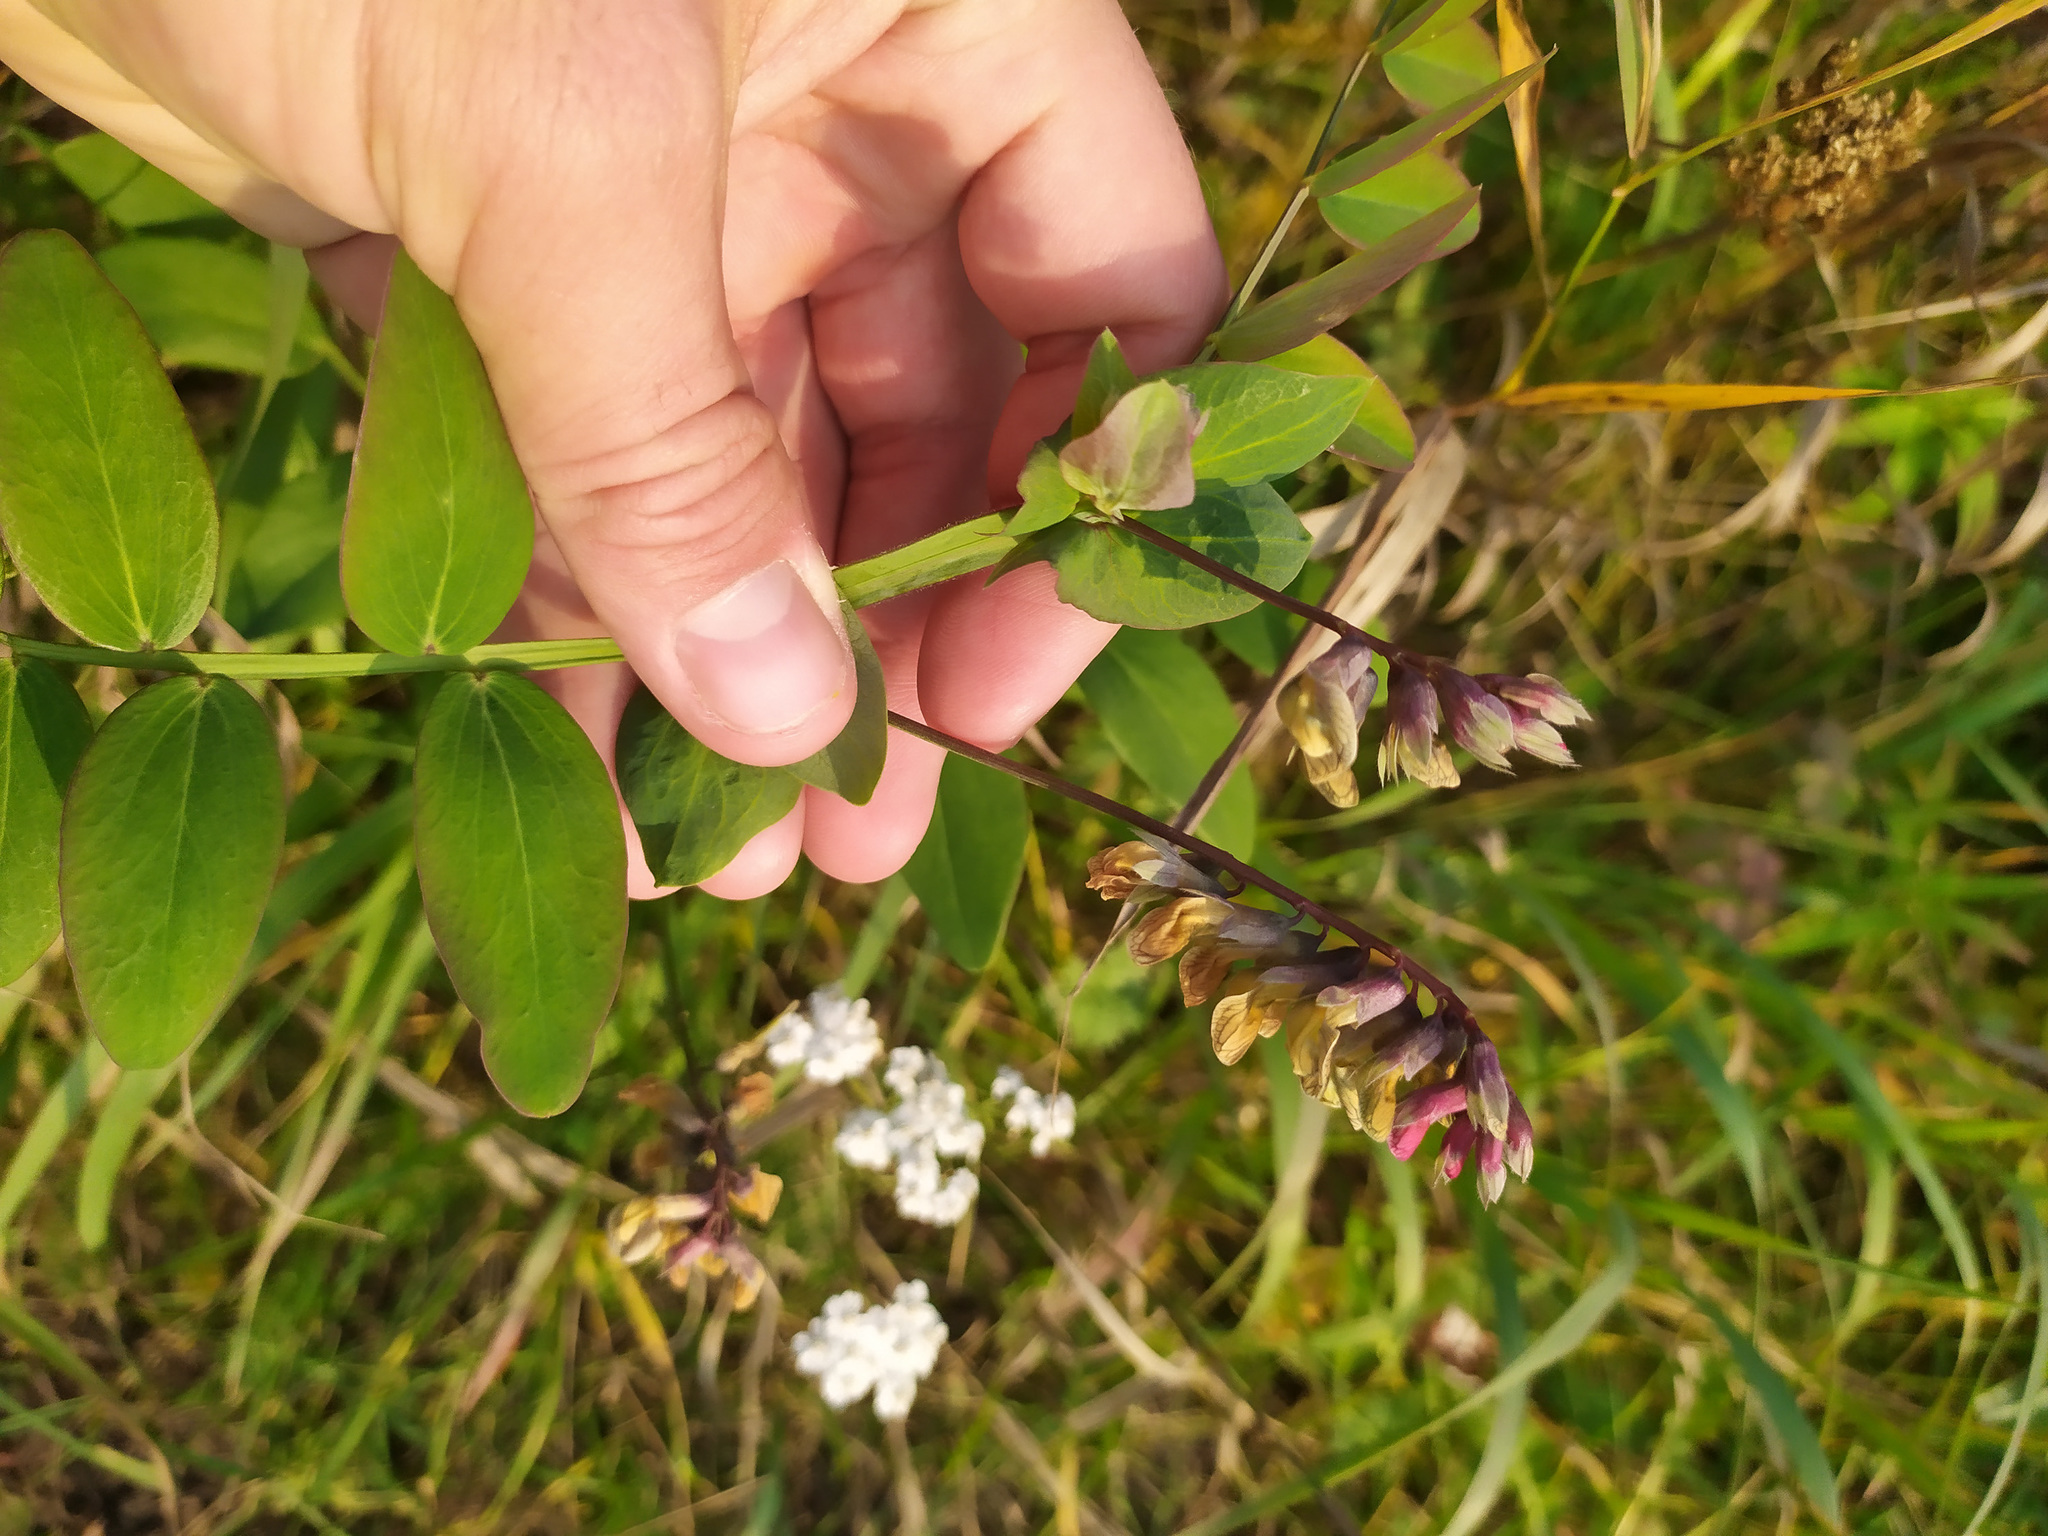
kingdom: Plantae
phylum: Tracheophyta
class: Magnoliopsida
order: Fabales
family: Fabaceae
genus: Lathyrus
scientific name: Lathyrus pisiformis
